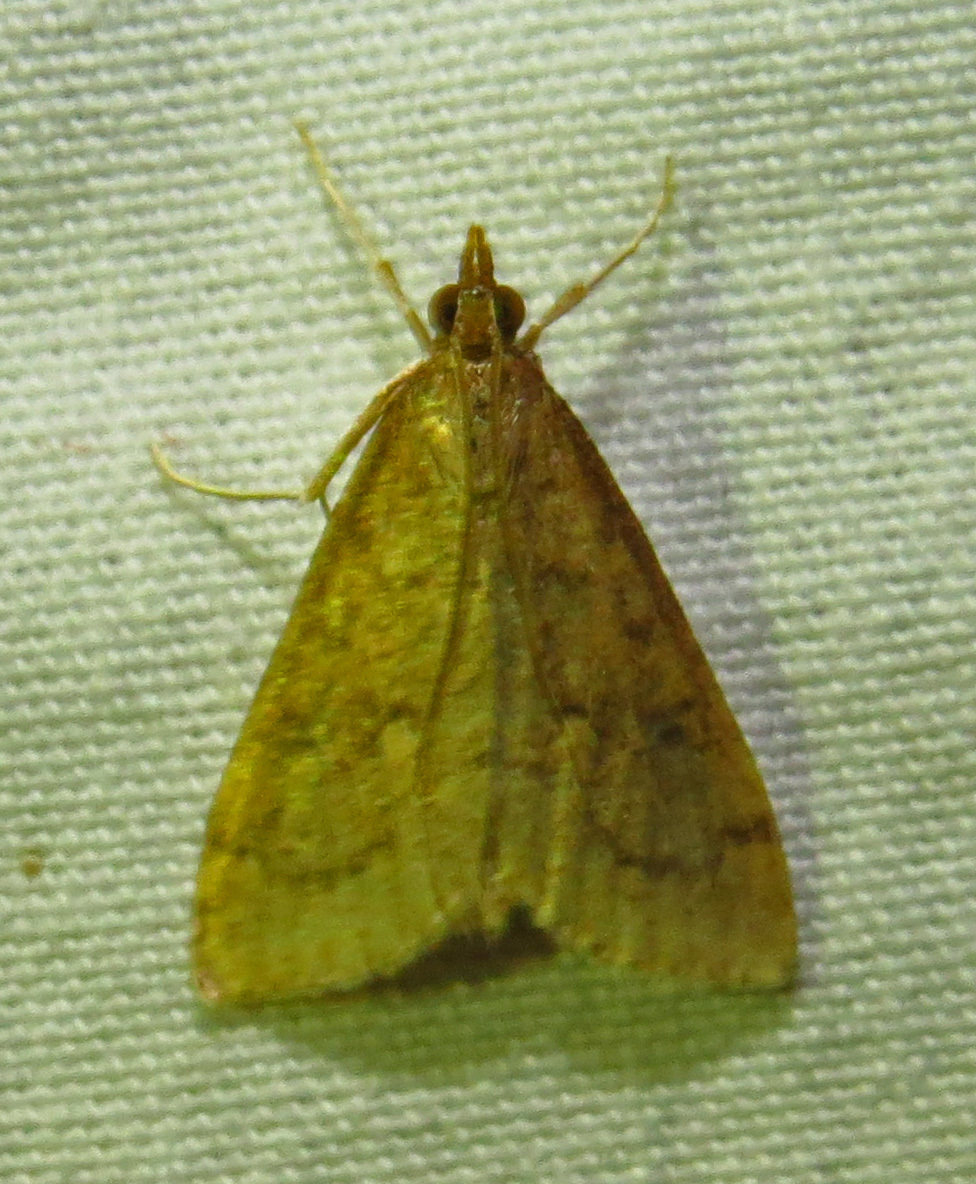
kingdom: Animalia
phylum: Arthropoda
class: Insecta
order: Lepidoptera
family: Crambidae
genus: Udea
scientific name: Udea rubigalis
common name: Celery leaftier moth
